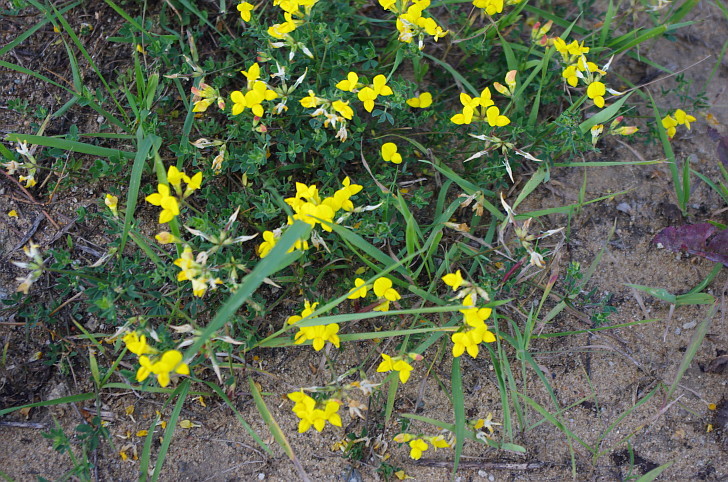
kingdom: Plantae
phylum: Tracheophyta
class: Magnoliopsida
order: Fabales
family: Fabaceae
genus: Lotus
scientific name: Lotus corniculatus
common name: Common bird's-foot-trefoil
